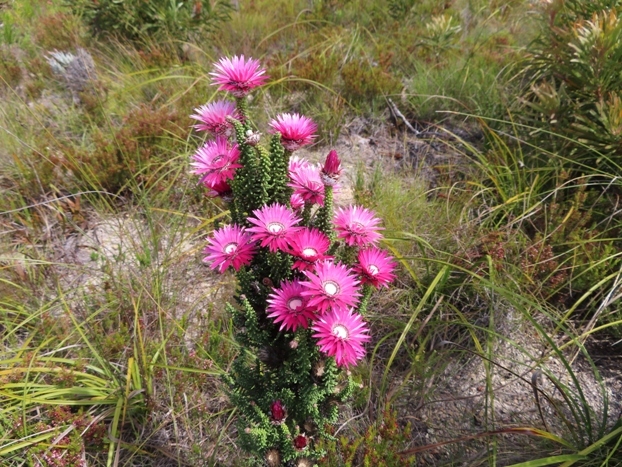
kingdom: Plantae
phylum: Tracheophyta
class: Magnoliopsida
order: Asterales
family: Asteraceae
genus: Phaenocoma
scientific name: Phaenocoma prolifera
